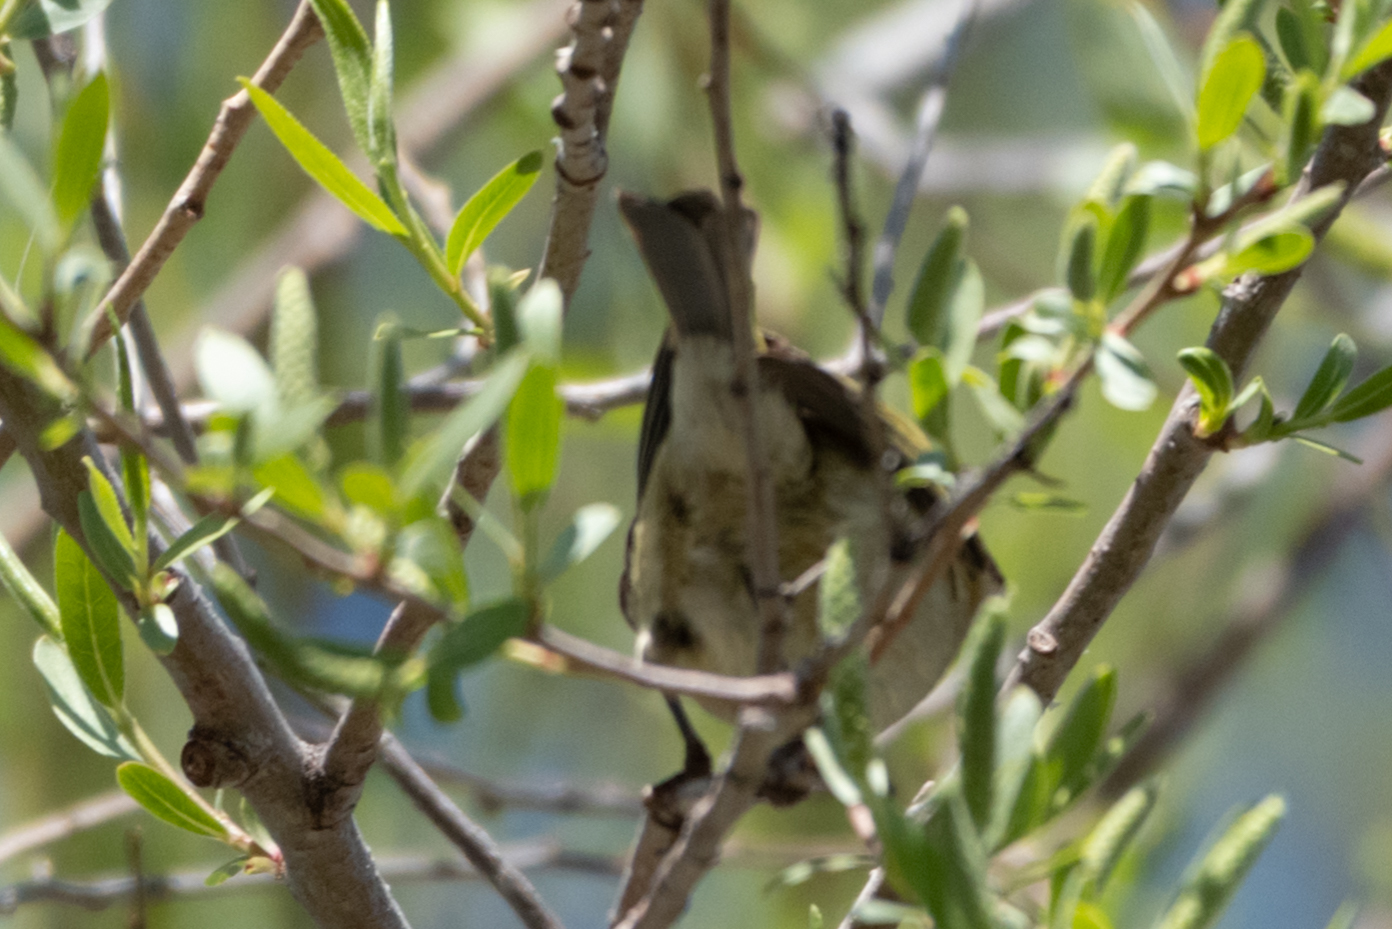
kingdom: Animalia
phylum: Chordata
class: Aves
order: Passeriformes
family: Regulidae
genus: Regulus
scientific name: Regulus calendula
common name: Ruby-crowned kinglet
